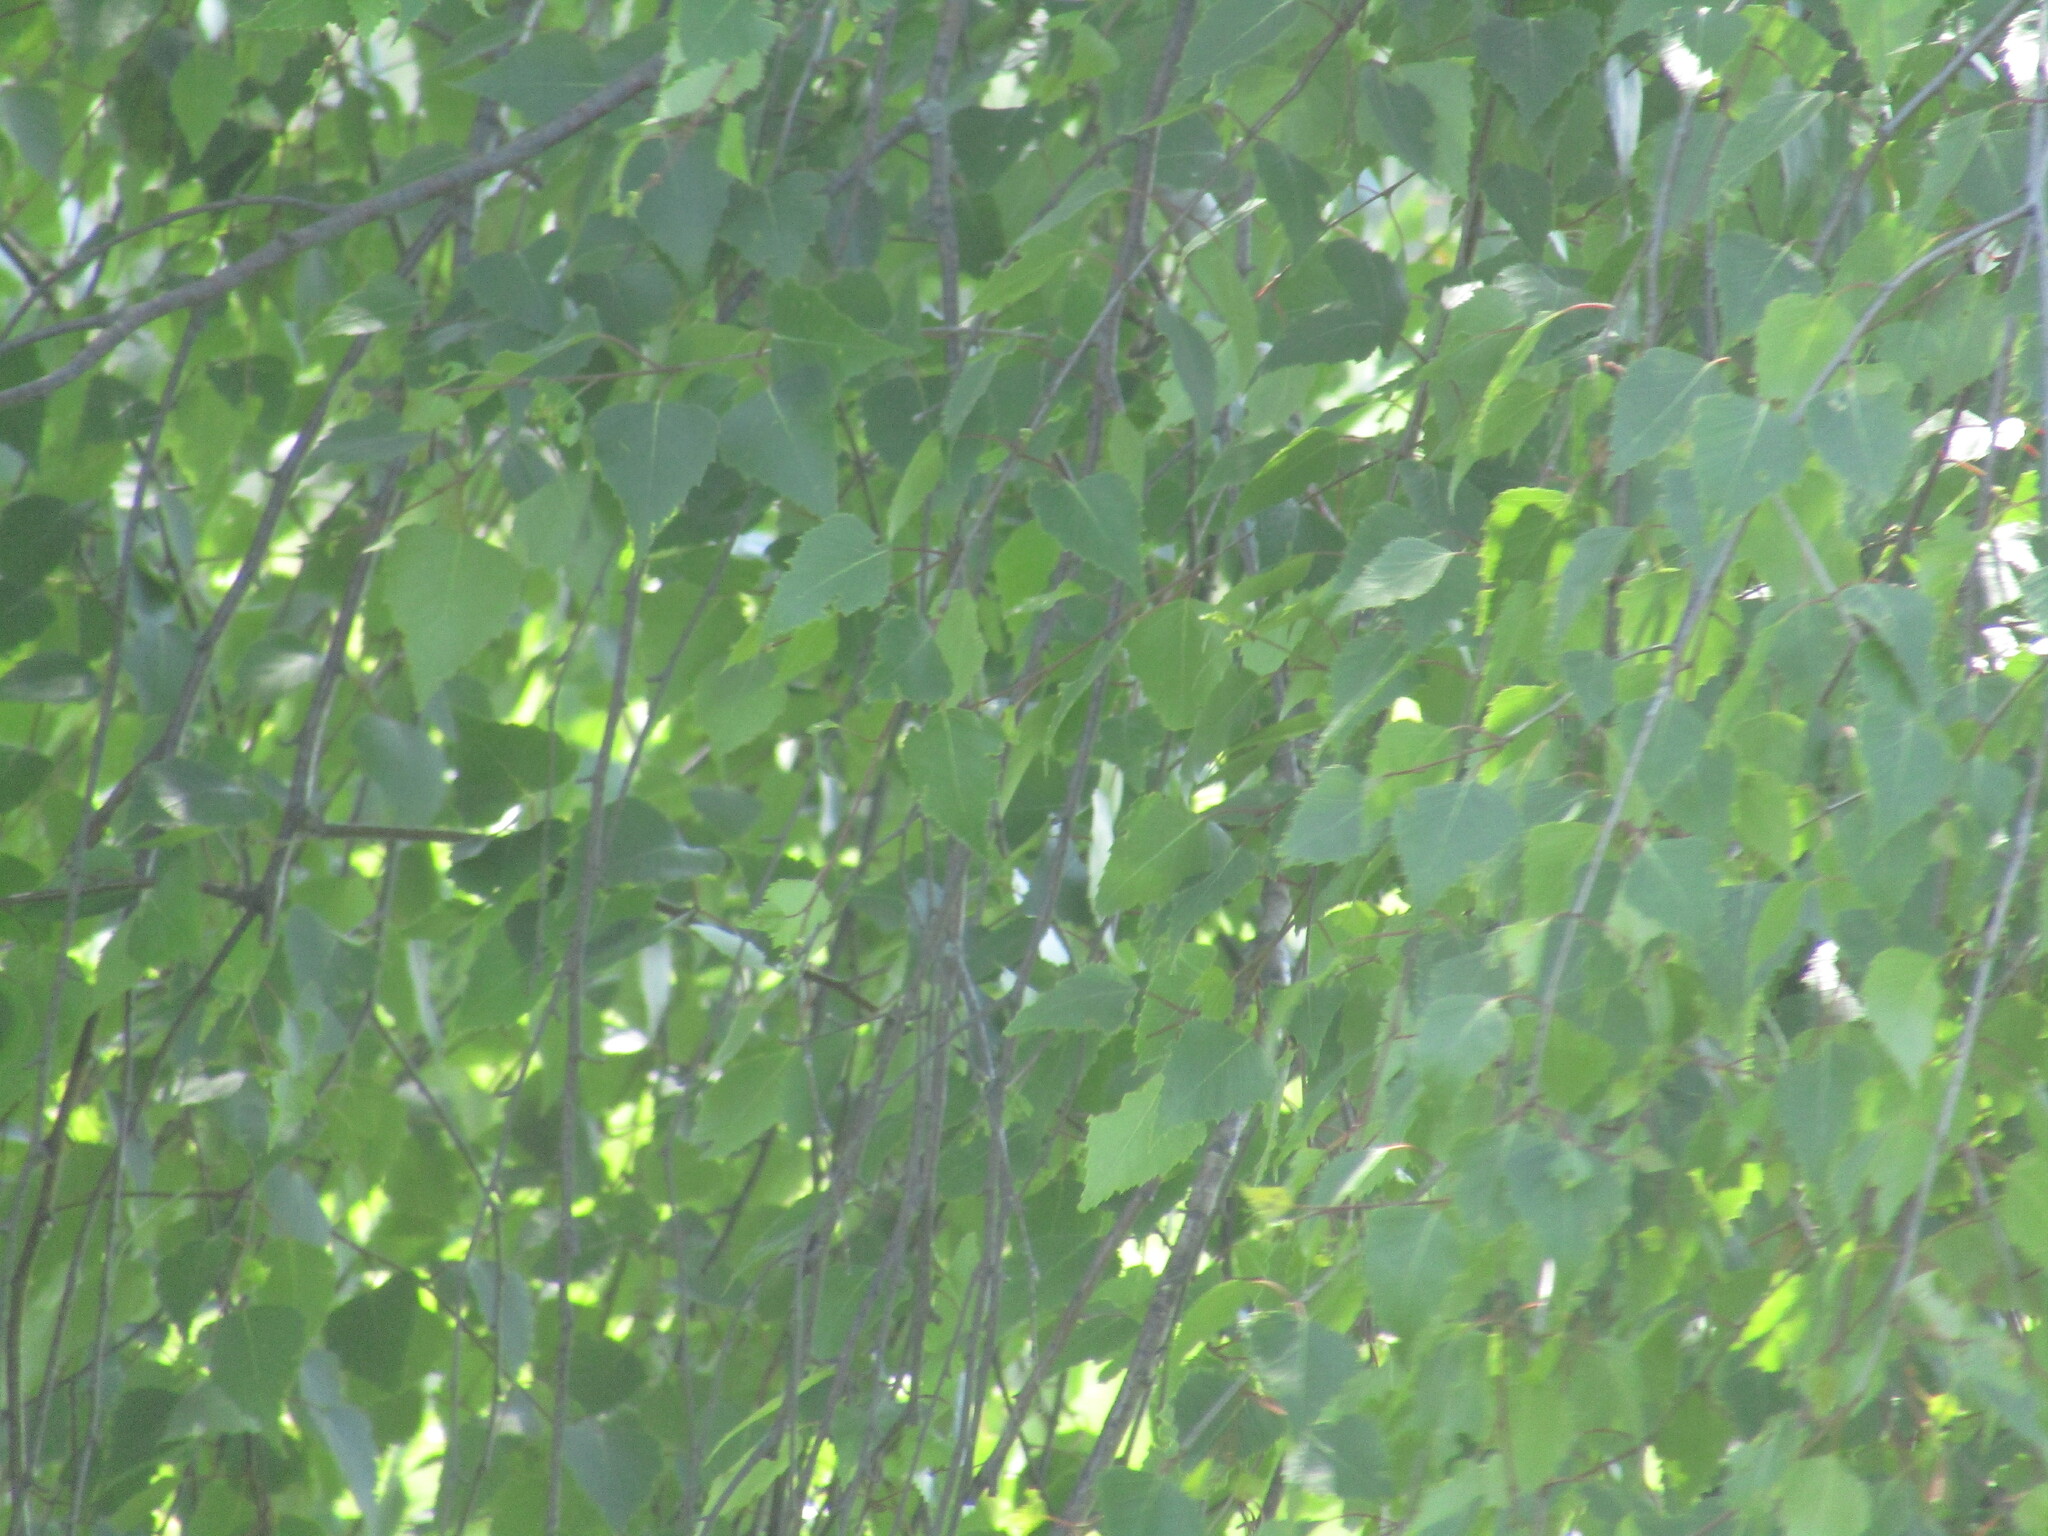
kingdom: Plantae
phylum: Tracheophyta
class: Magnoliopsida
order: Fagales
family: Betulaceae
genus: Betula
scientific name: Betula pendula
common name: Silver birch
